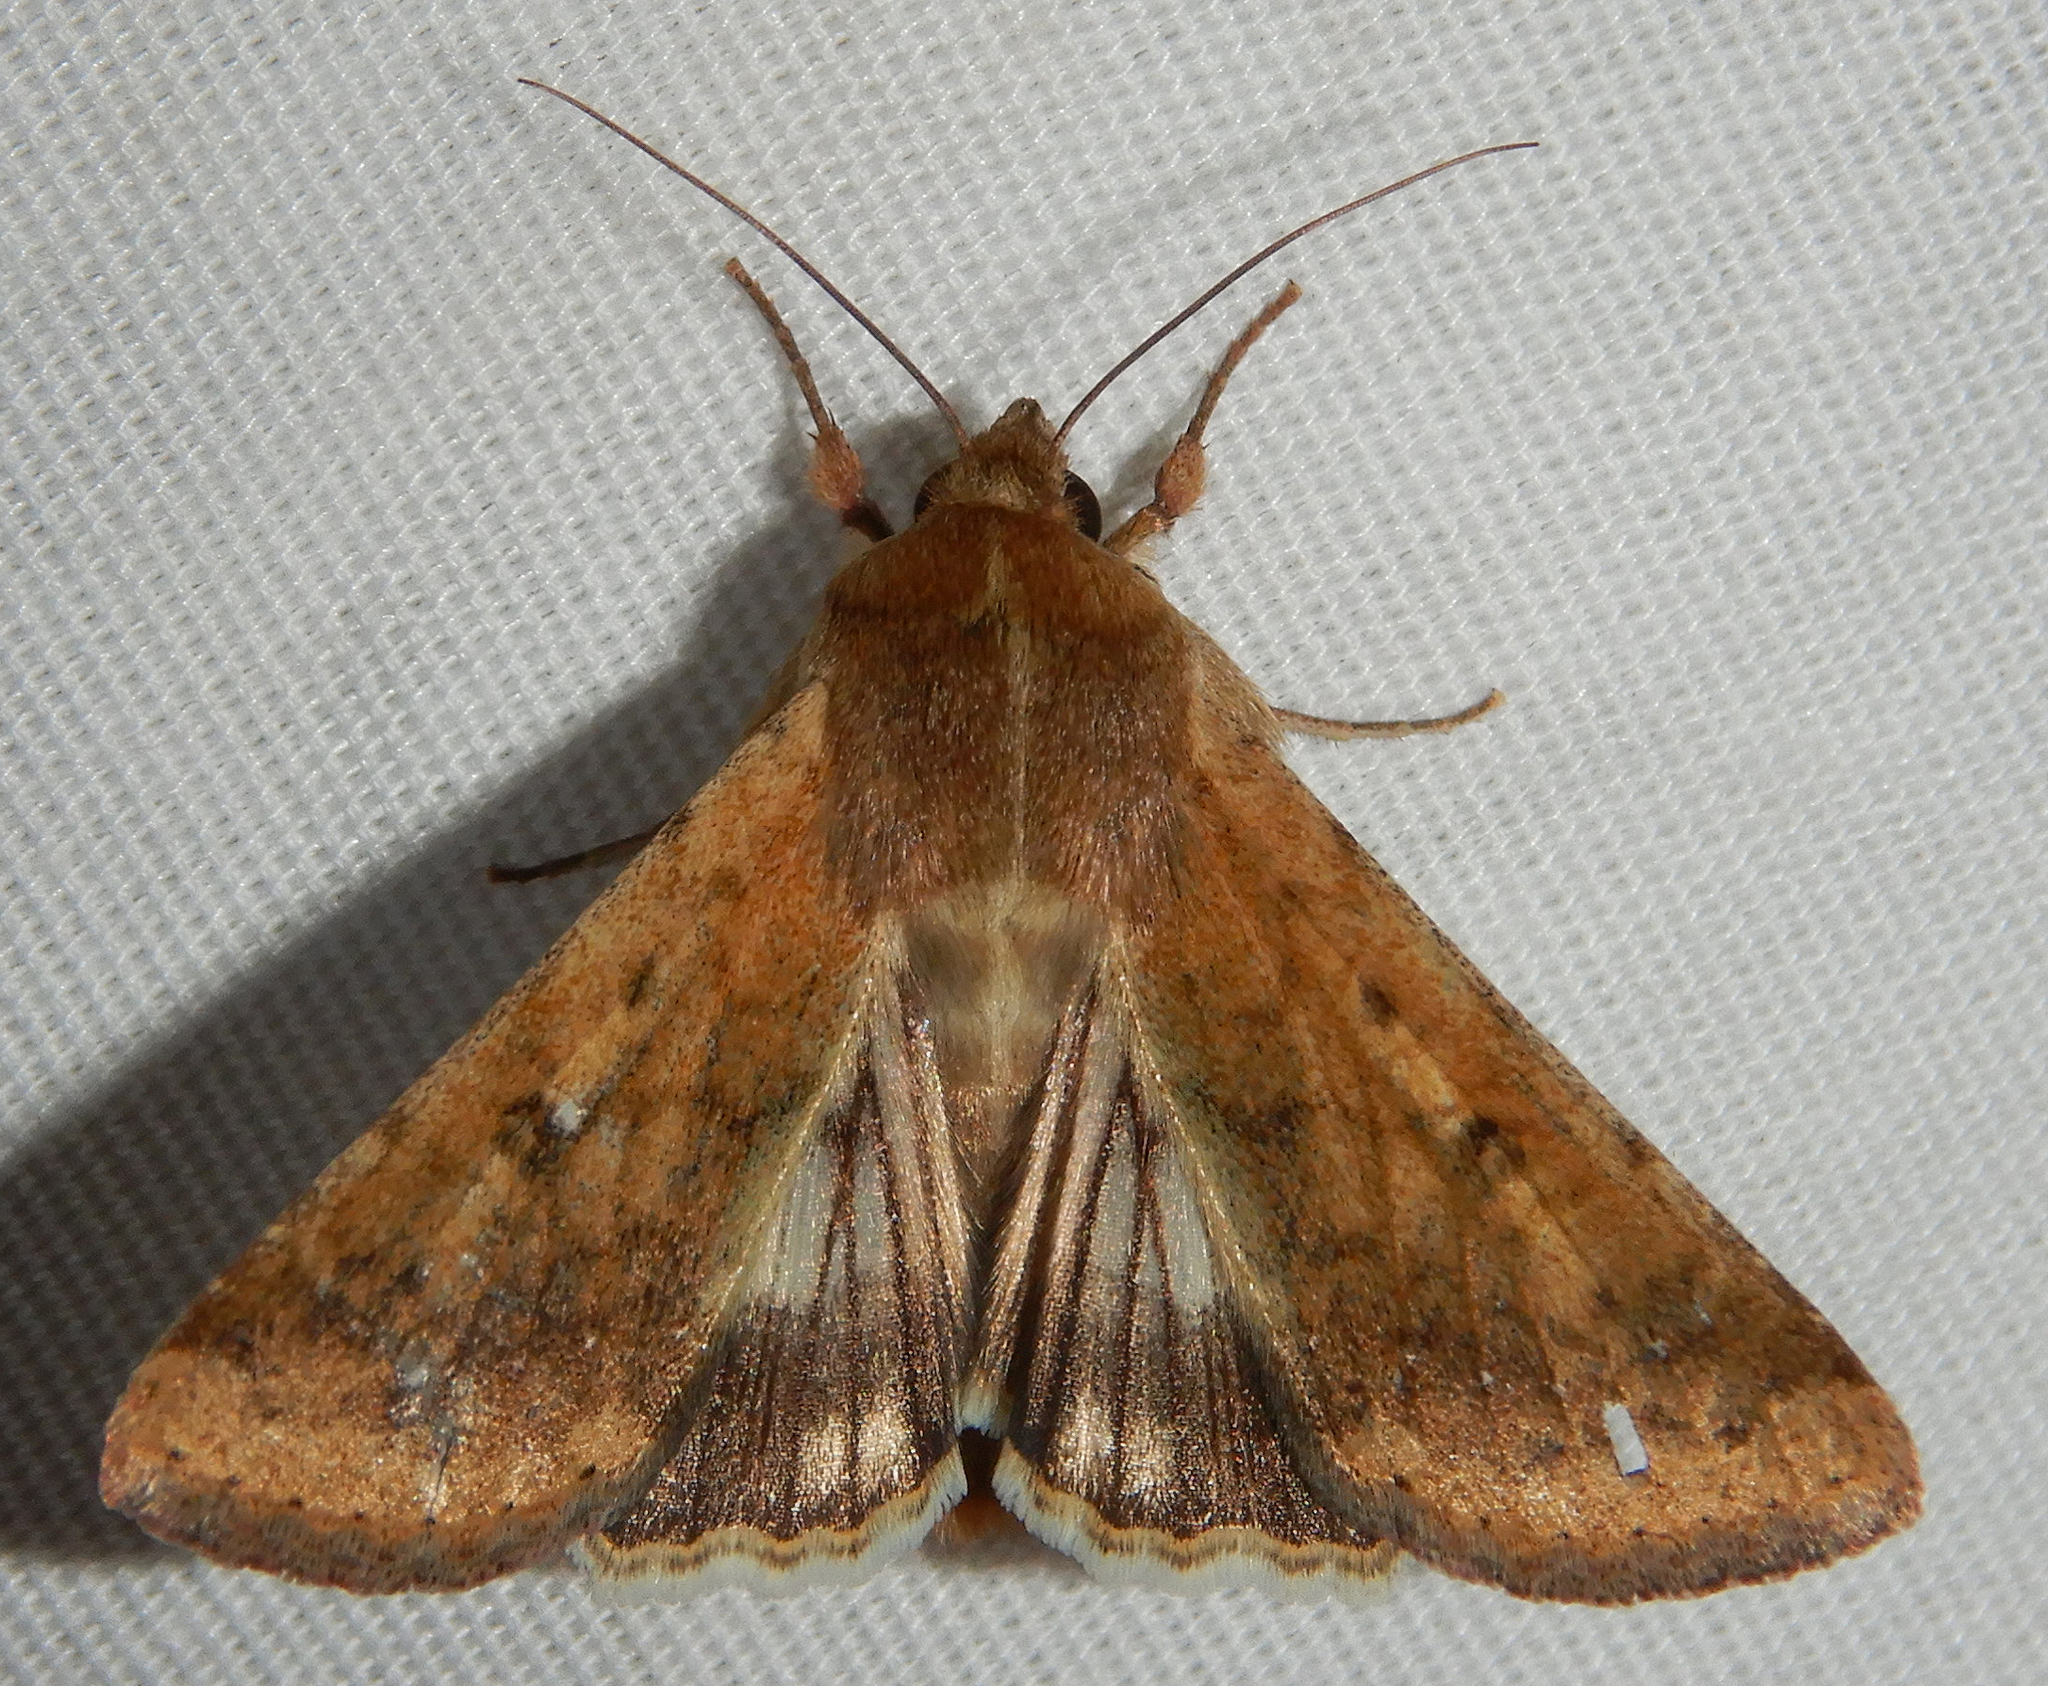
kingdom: Animalia
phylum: Arthropoda
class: Insecta
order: Lepidoptera
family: Noctuidae
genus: Helicoverpa
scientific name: Helicoverpa zea
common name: Bollworm
